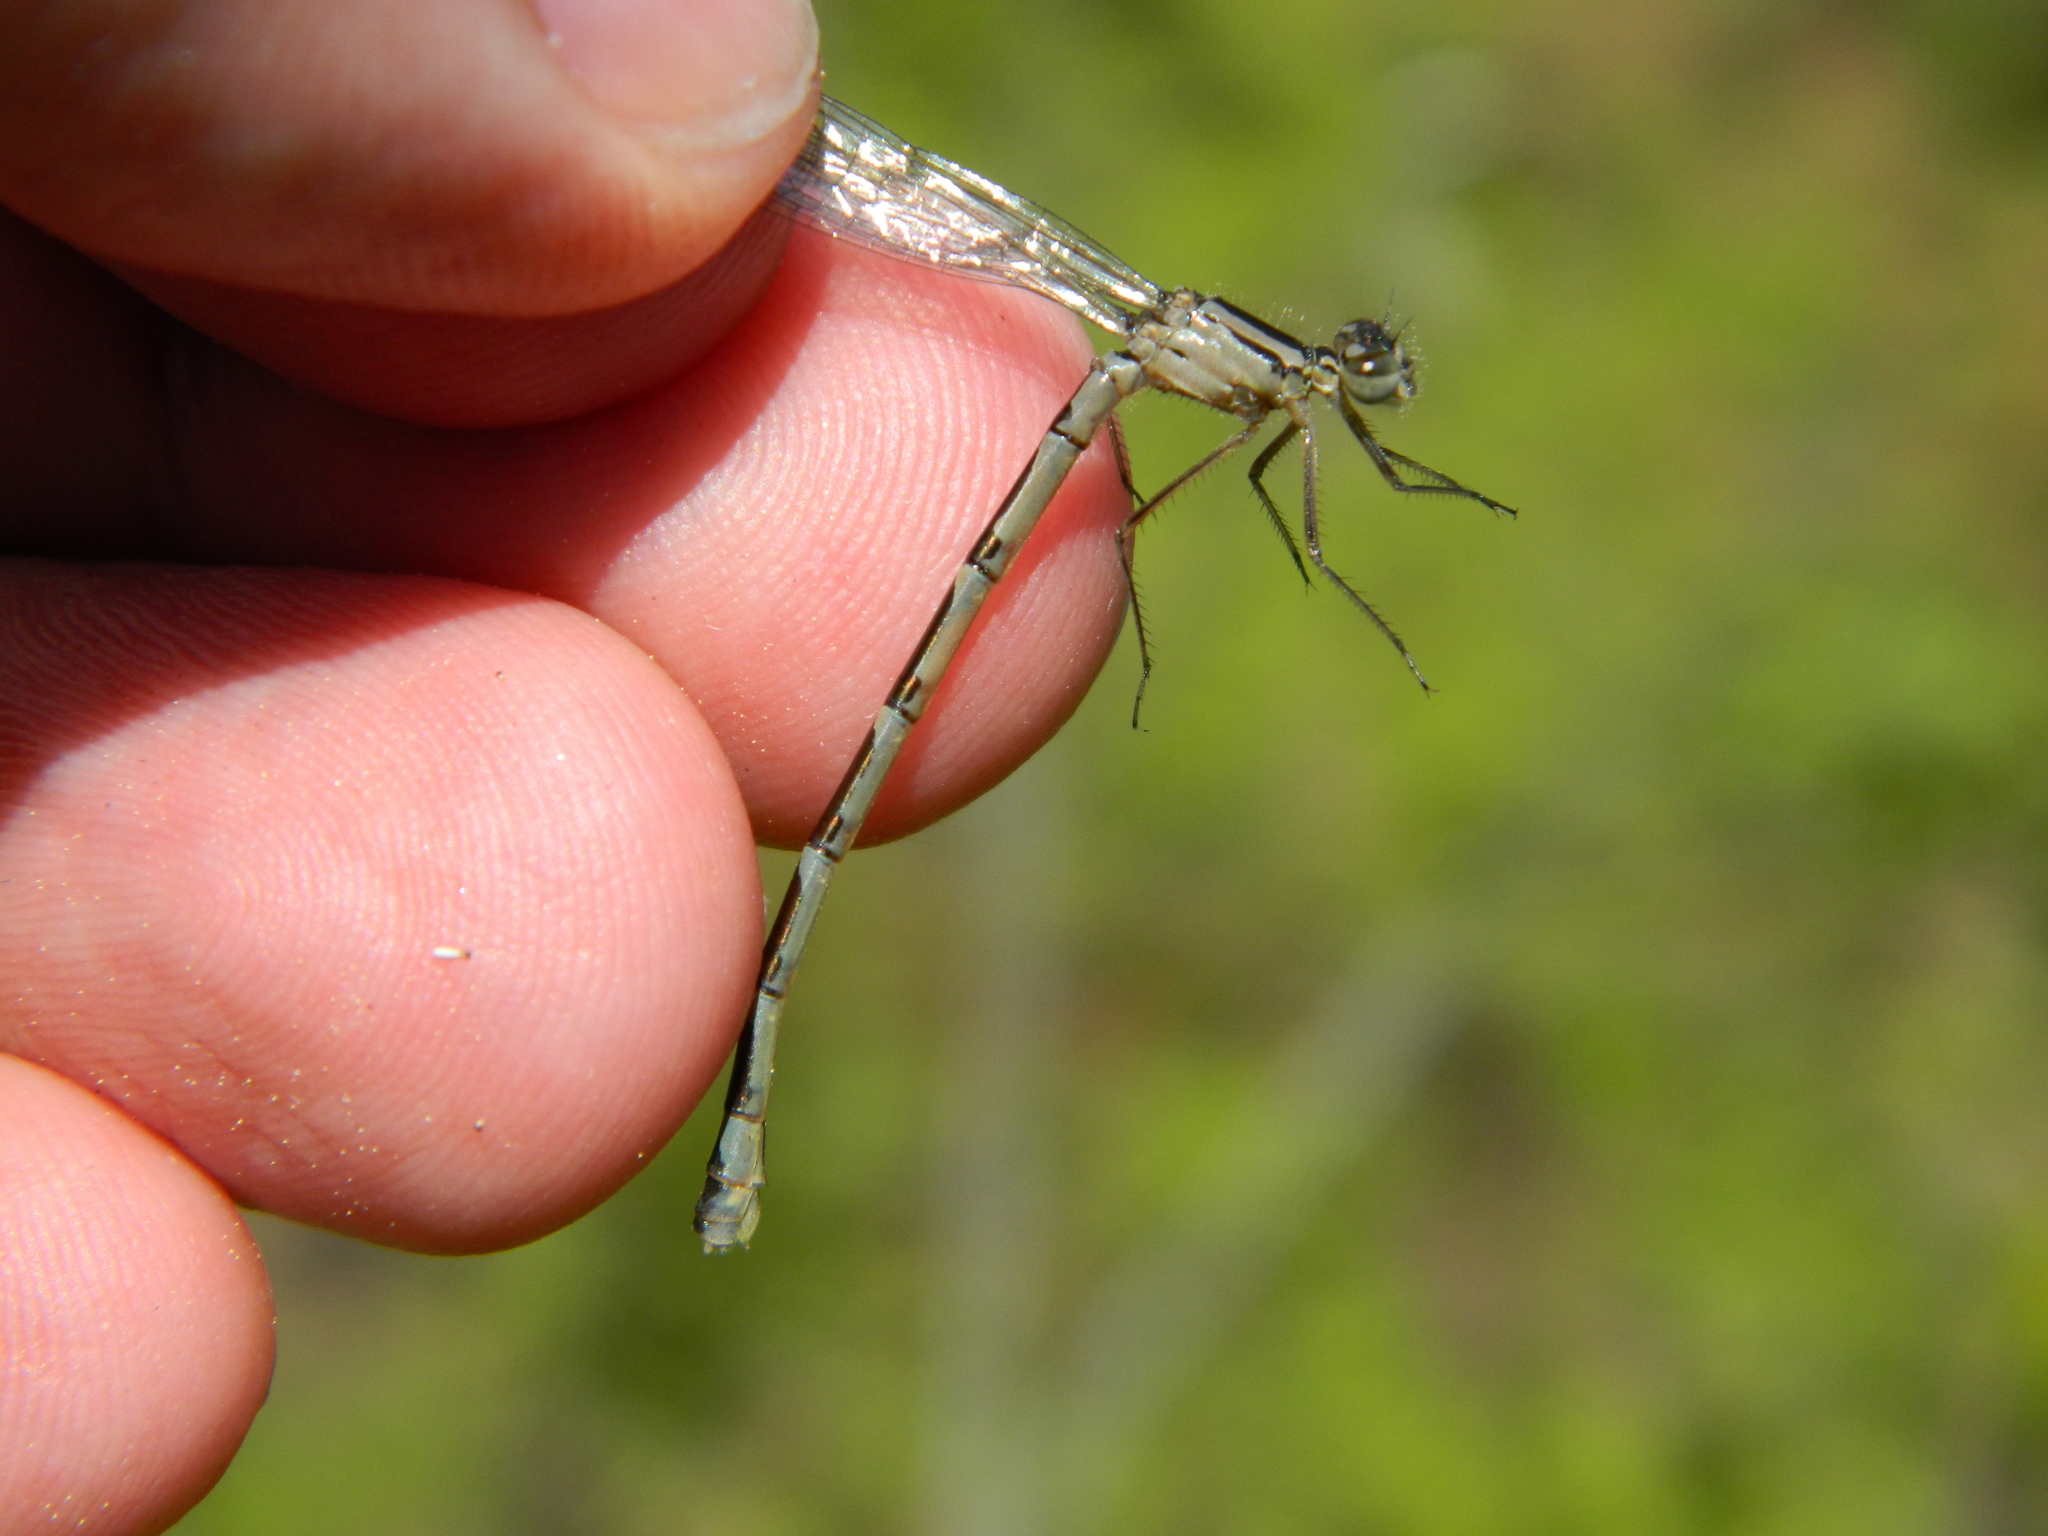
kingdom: Animalia
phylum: Arthropoda
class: Insecta
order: Odonata
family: Coenagrionidae
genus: Enallagma
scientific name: Enallagma annexum
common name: Northern bluet
